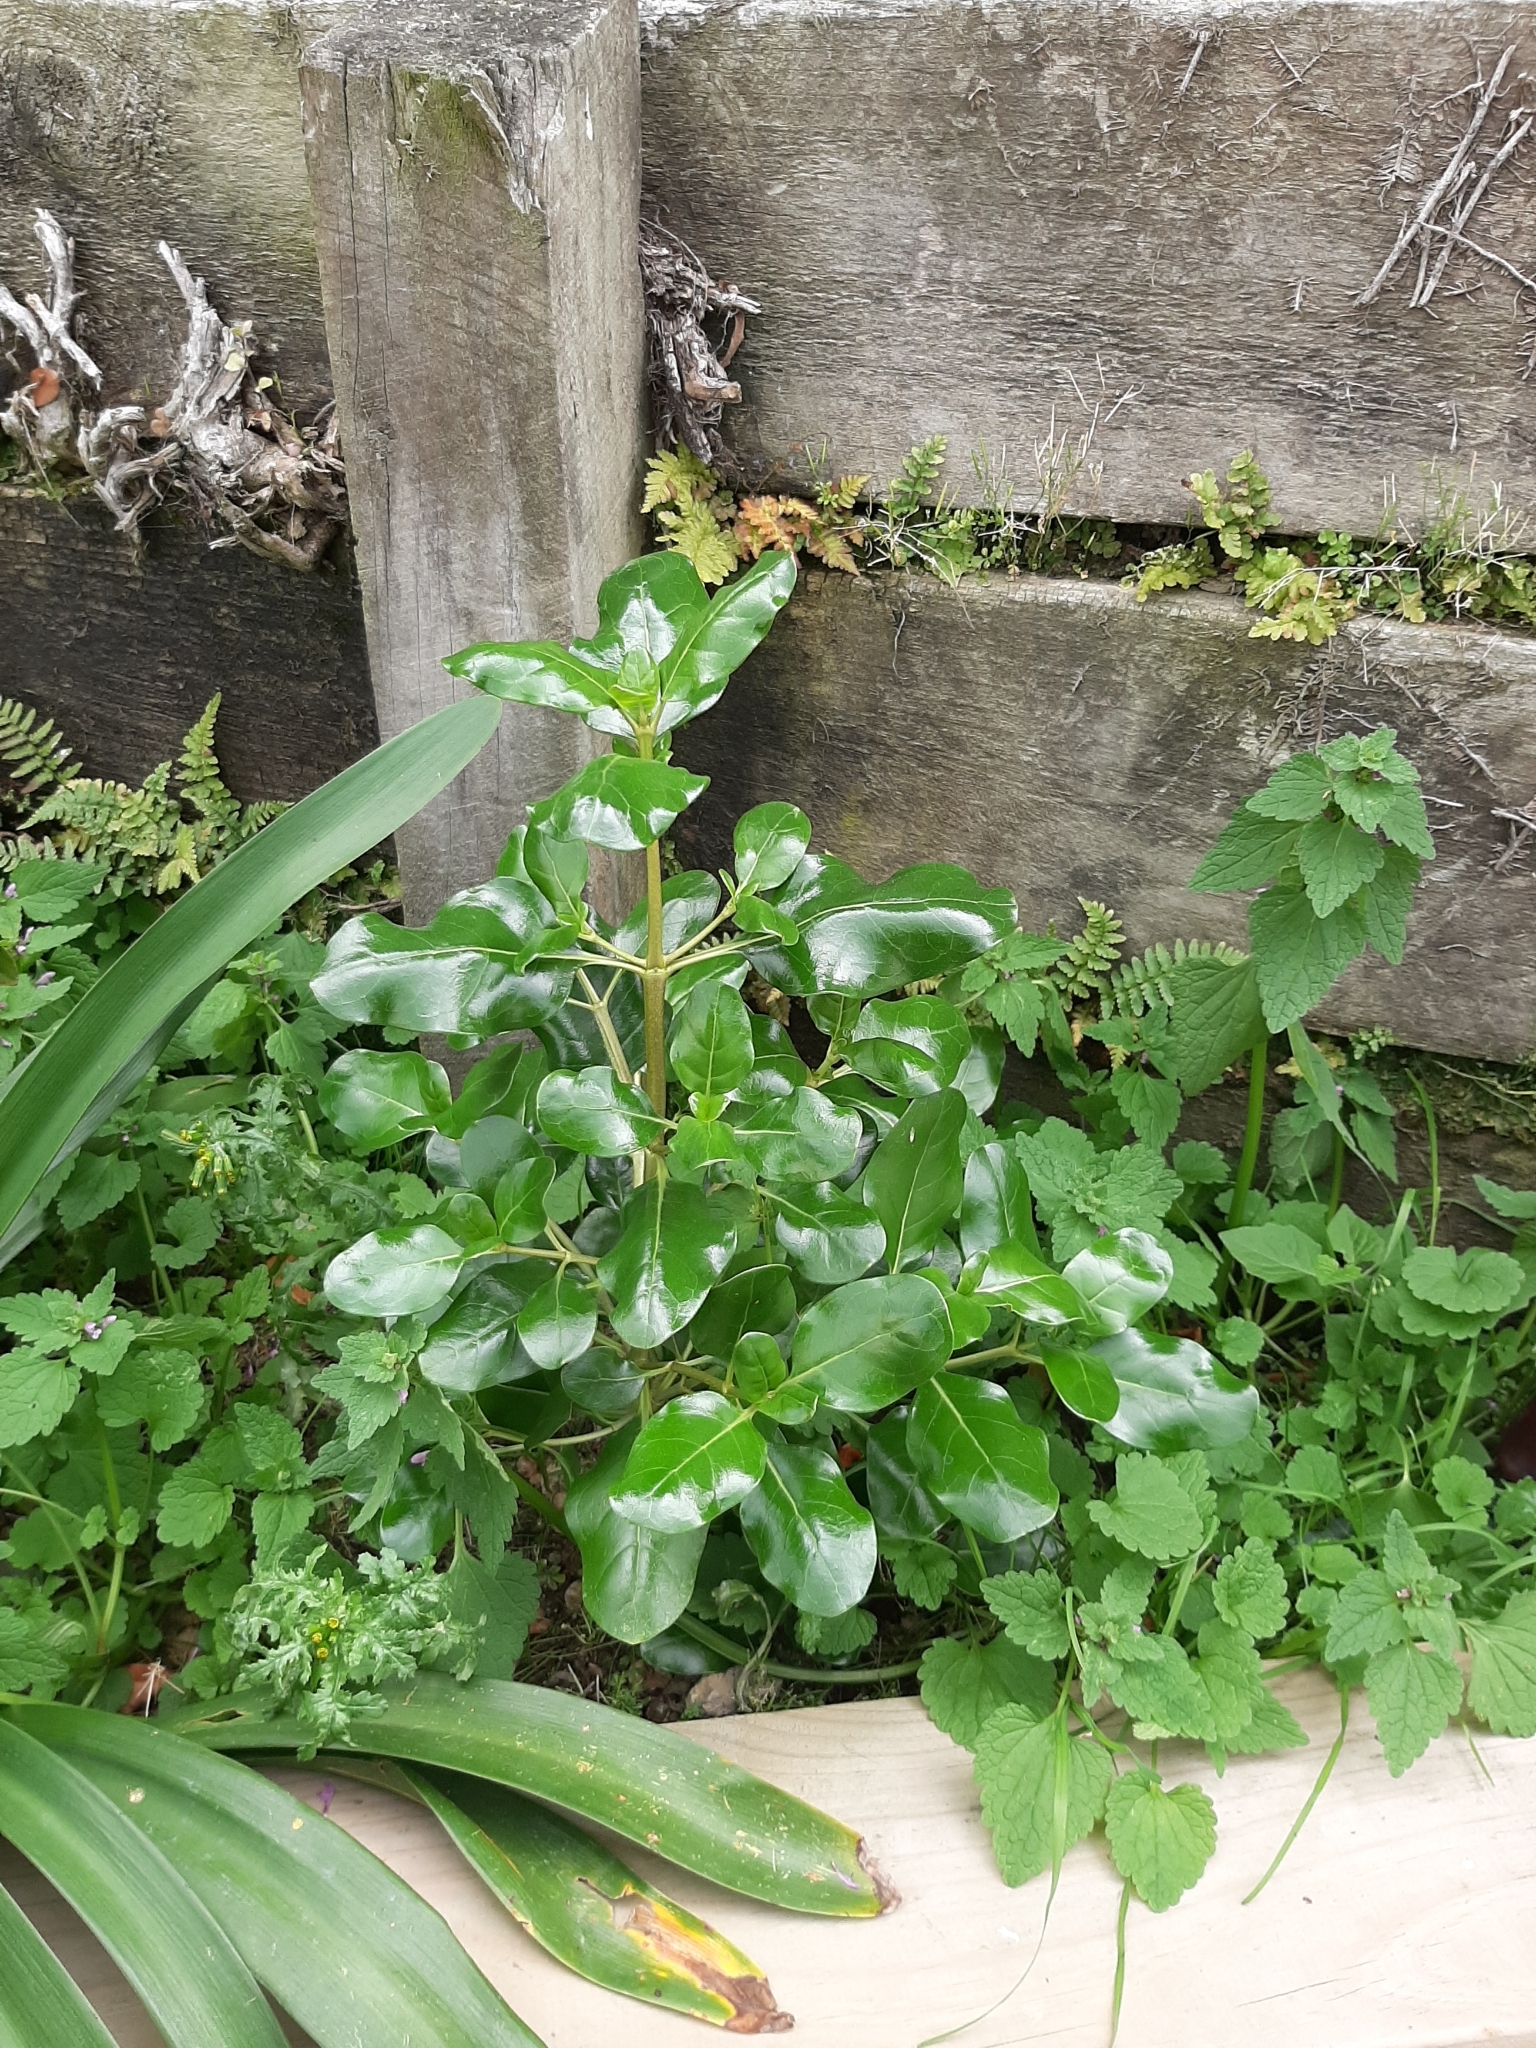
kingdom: Plantae
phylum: Tracheophyta
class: Magnoliopsida
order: Gentianales
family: Rubiaceae
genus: Coprosma
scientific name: Coprosma repens
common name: Tree bedstraw
